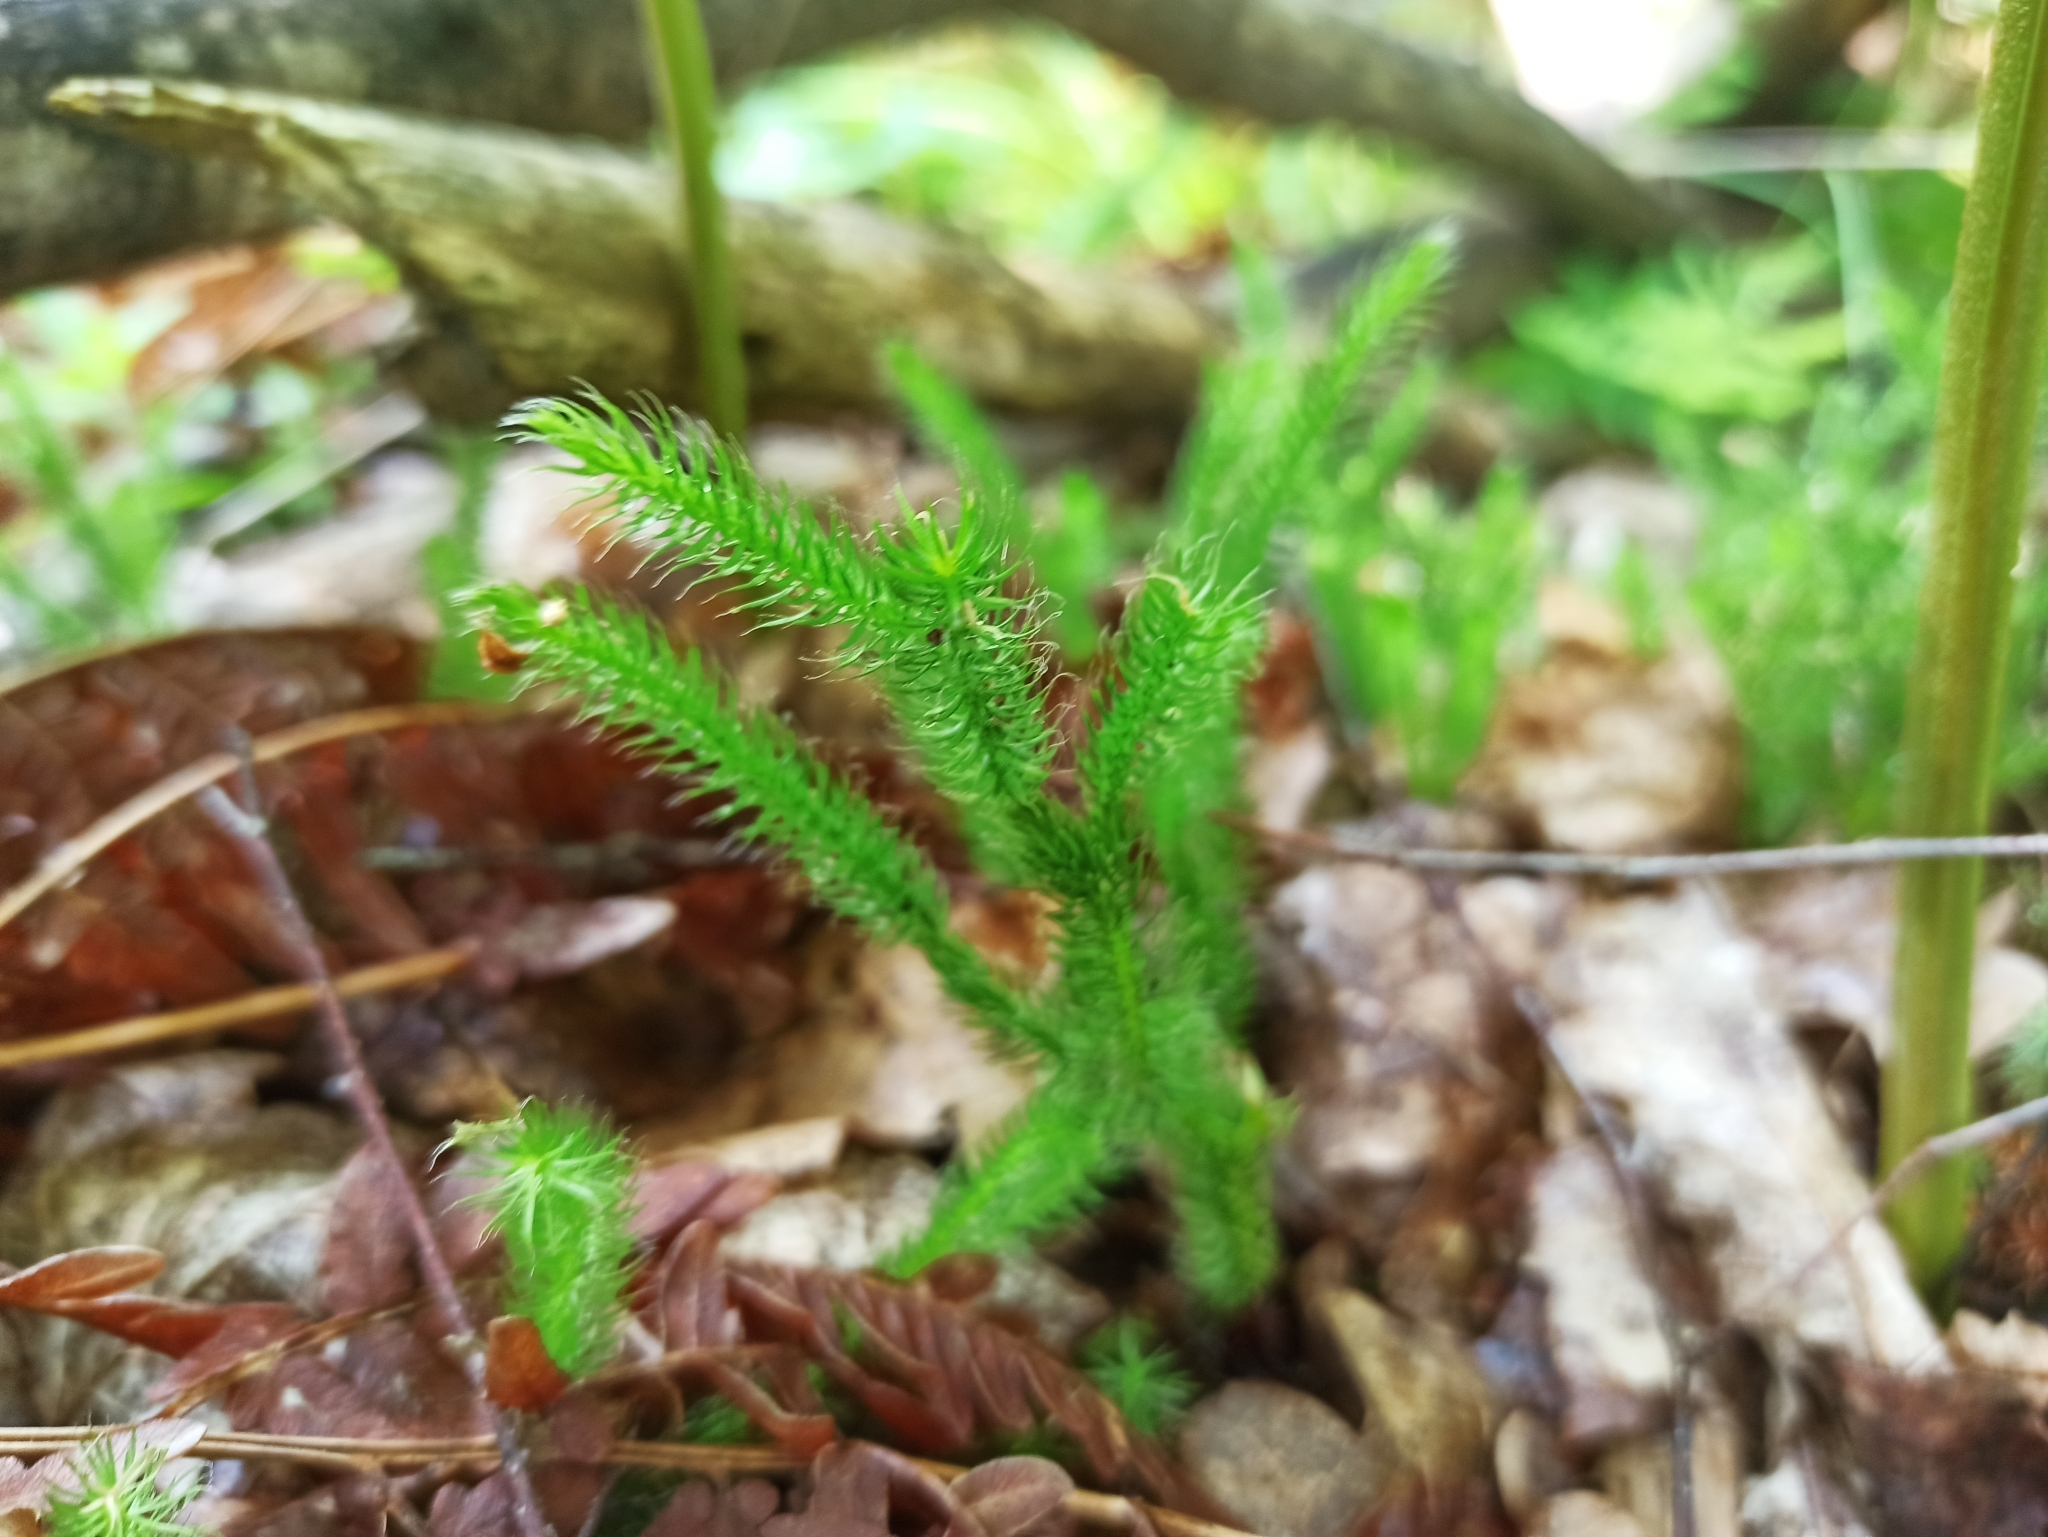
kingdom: Plantae
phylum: Tracheophyta
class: Lycopodiopsida
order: Lycopodiales
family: Lycopodiaceae
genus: Lycopodium
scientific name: Lycopodium clavatum
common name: Stag's-horn clubmoss
